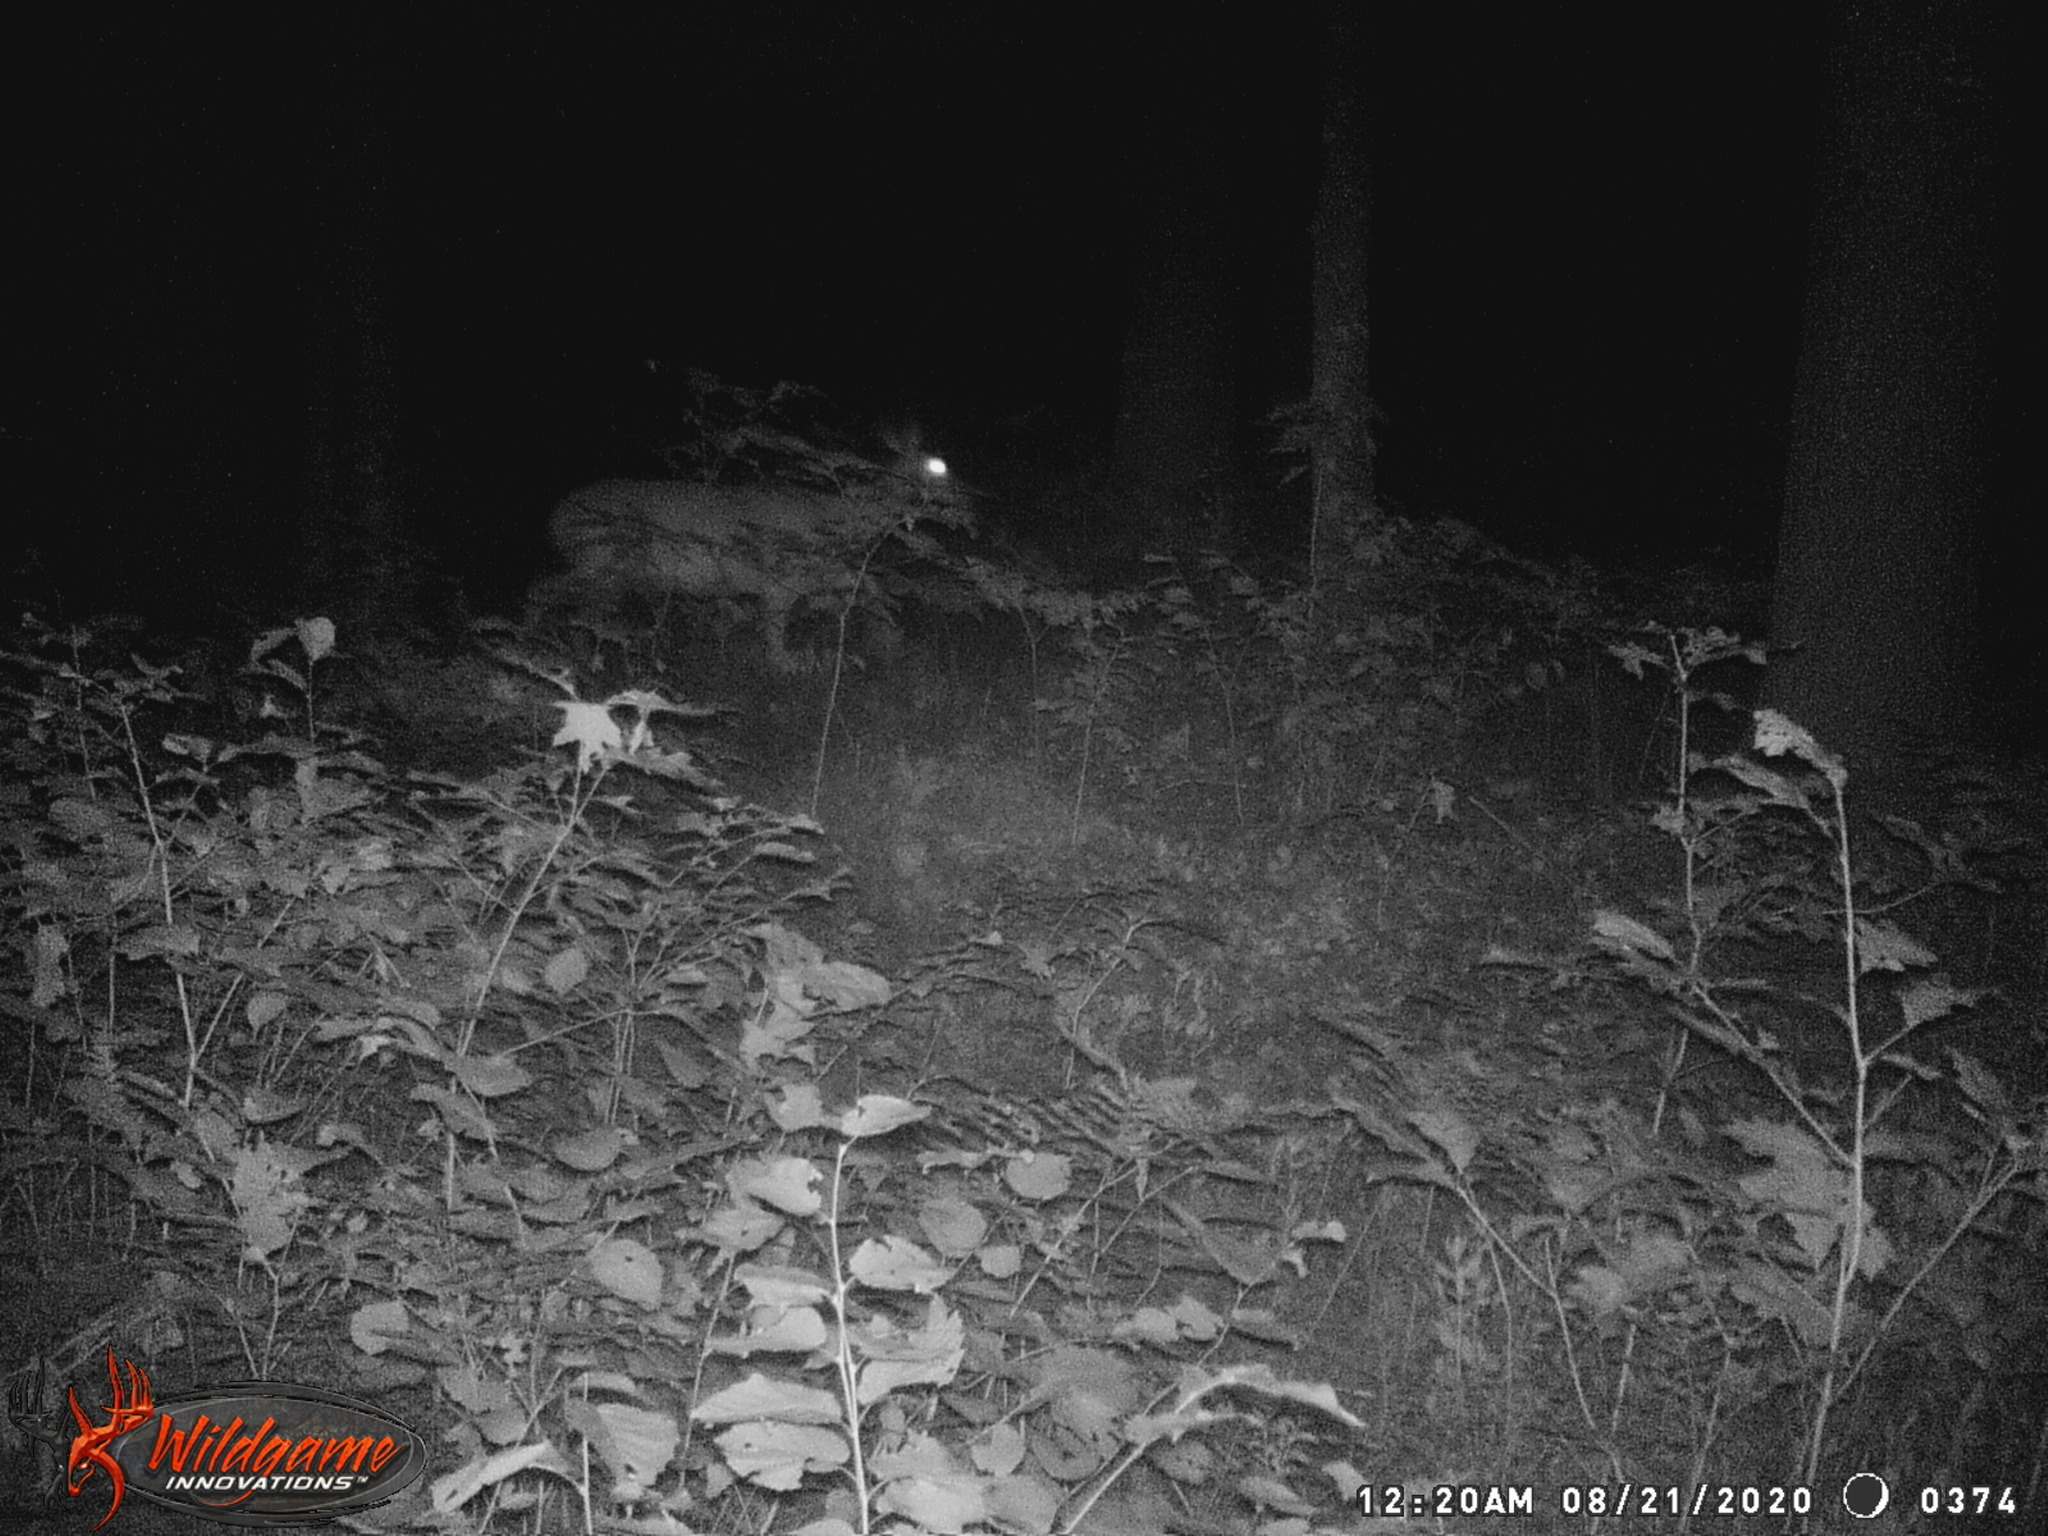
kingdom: Animalia
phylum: Chordata
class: Mammalia
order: Artiodactyla
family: Cervidae
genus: Odocoileus
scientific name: Odocoileus virginianus
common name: White-tailed deer
